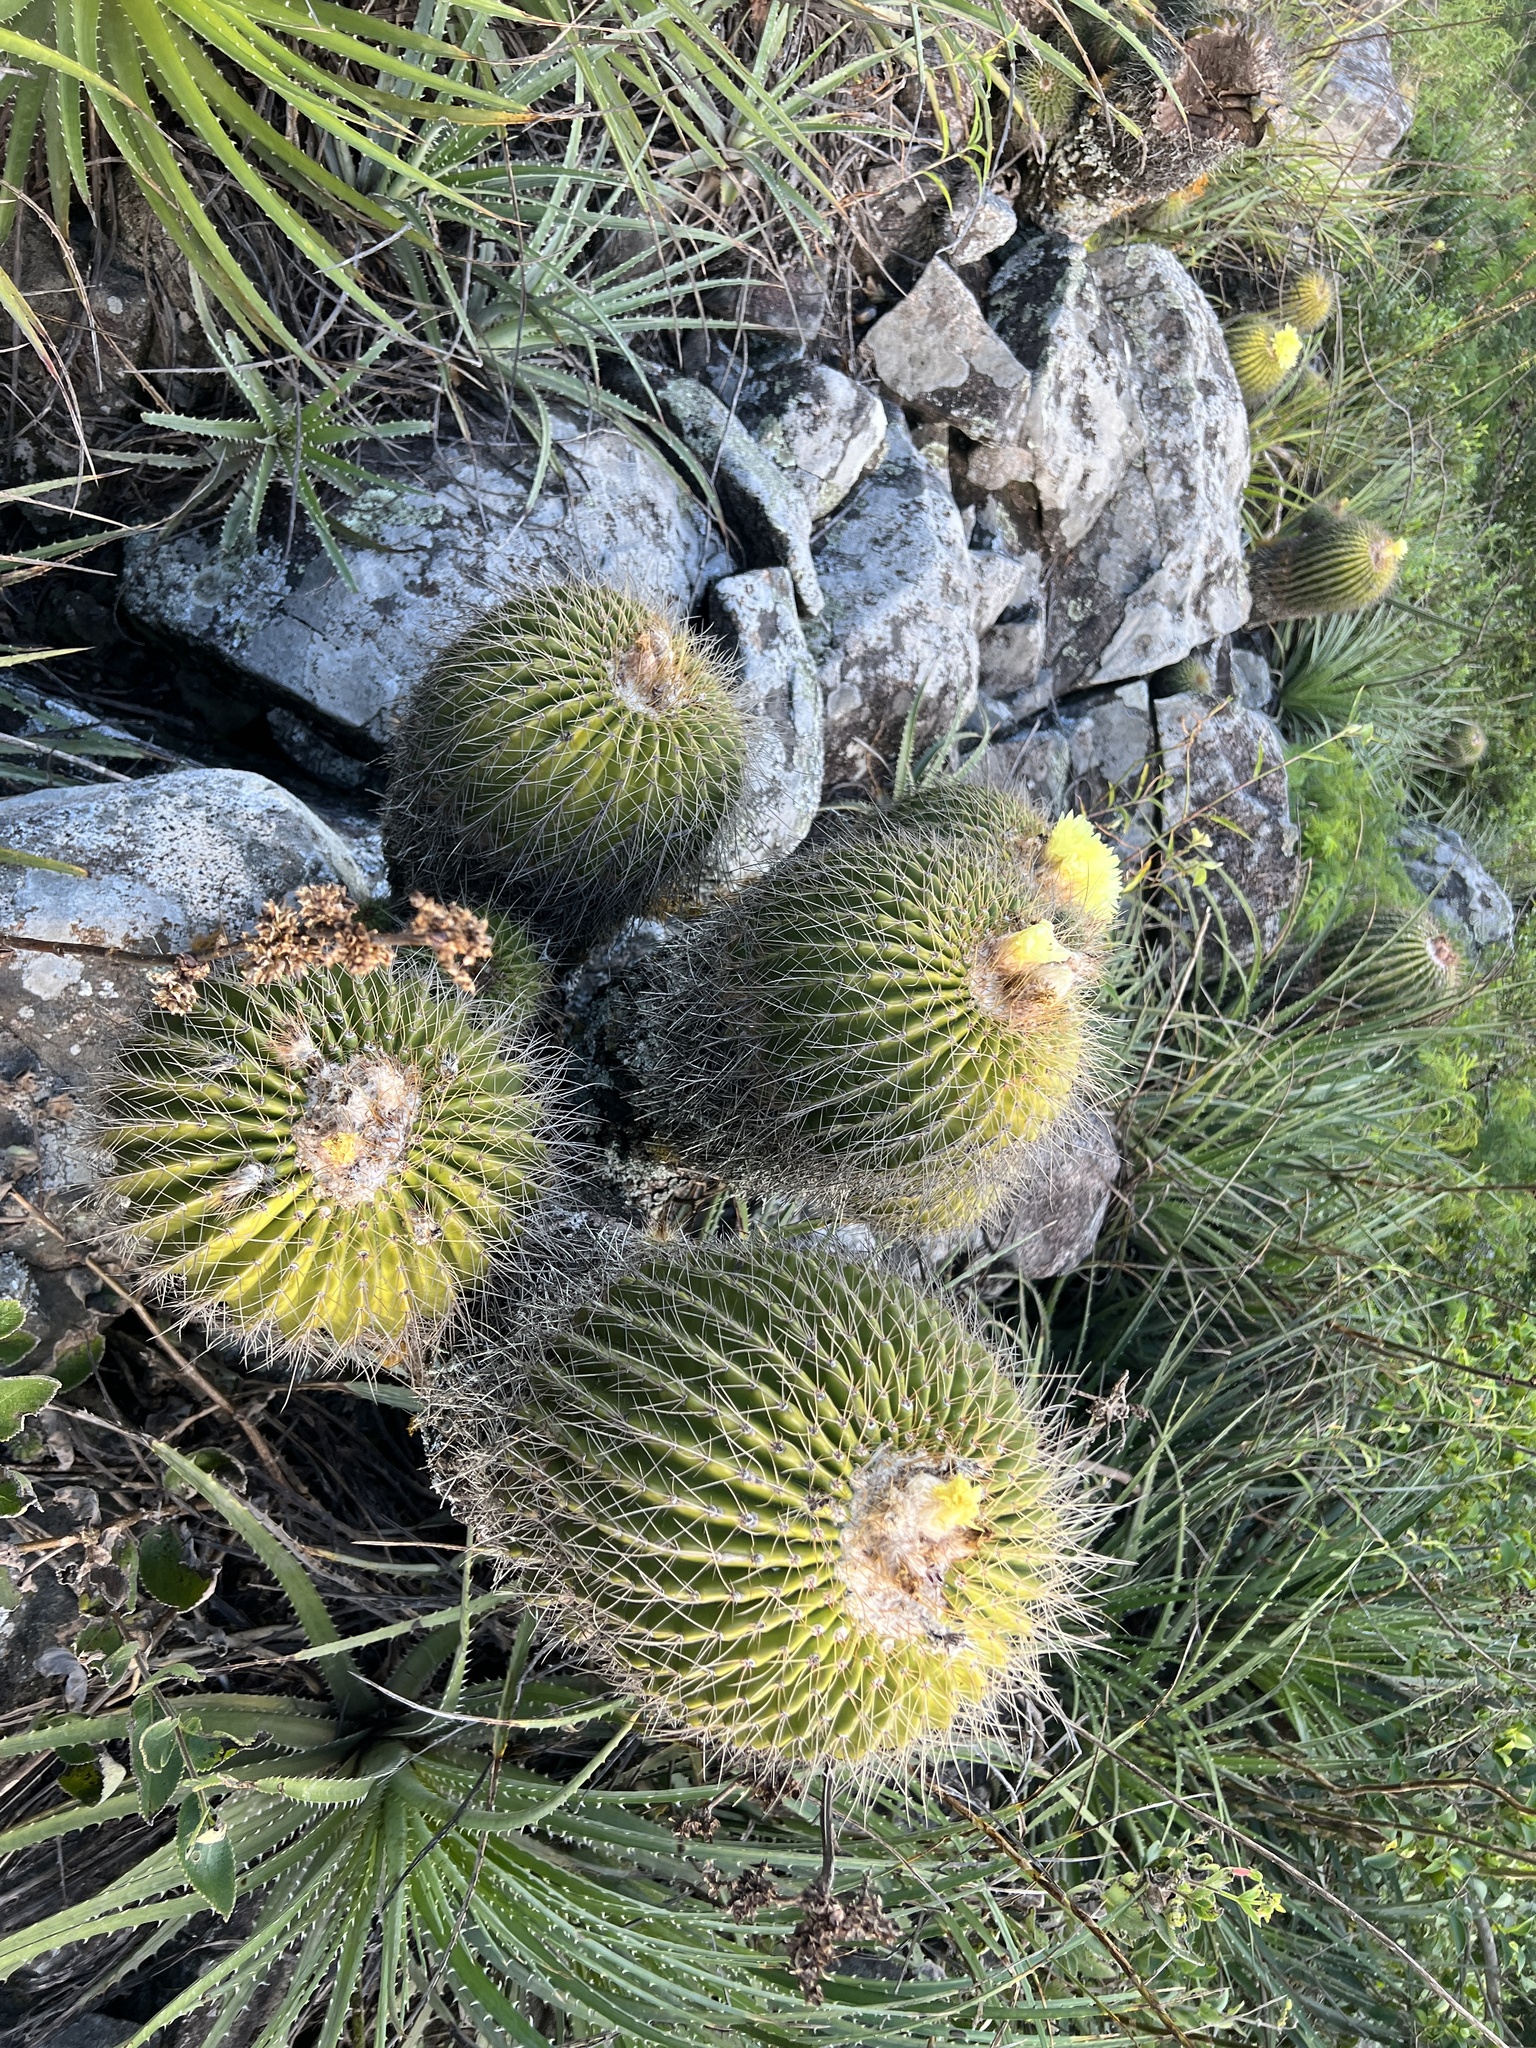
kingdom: Plantae
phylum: Tracheophyta
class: Magnoliopsida
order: Caryophyllales
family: Cactaceae
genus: Parodia
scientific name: Parodia claviceps
